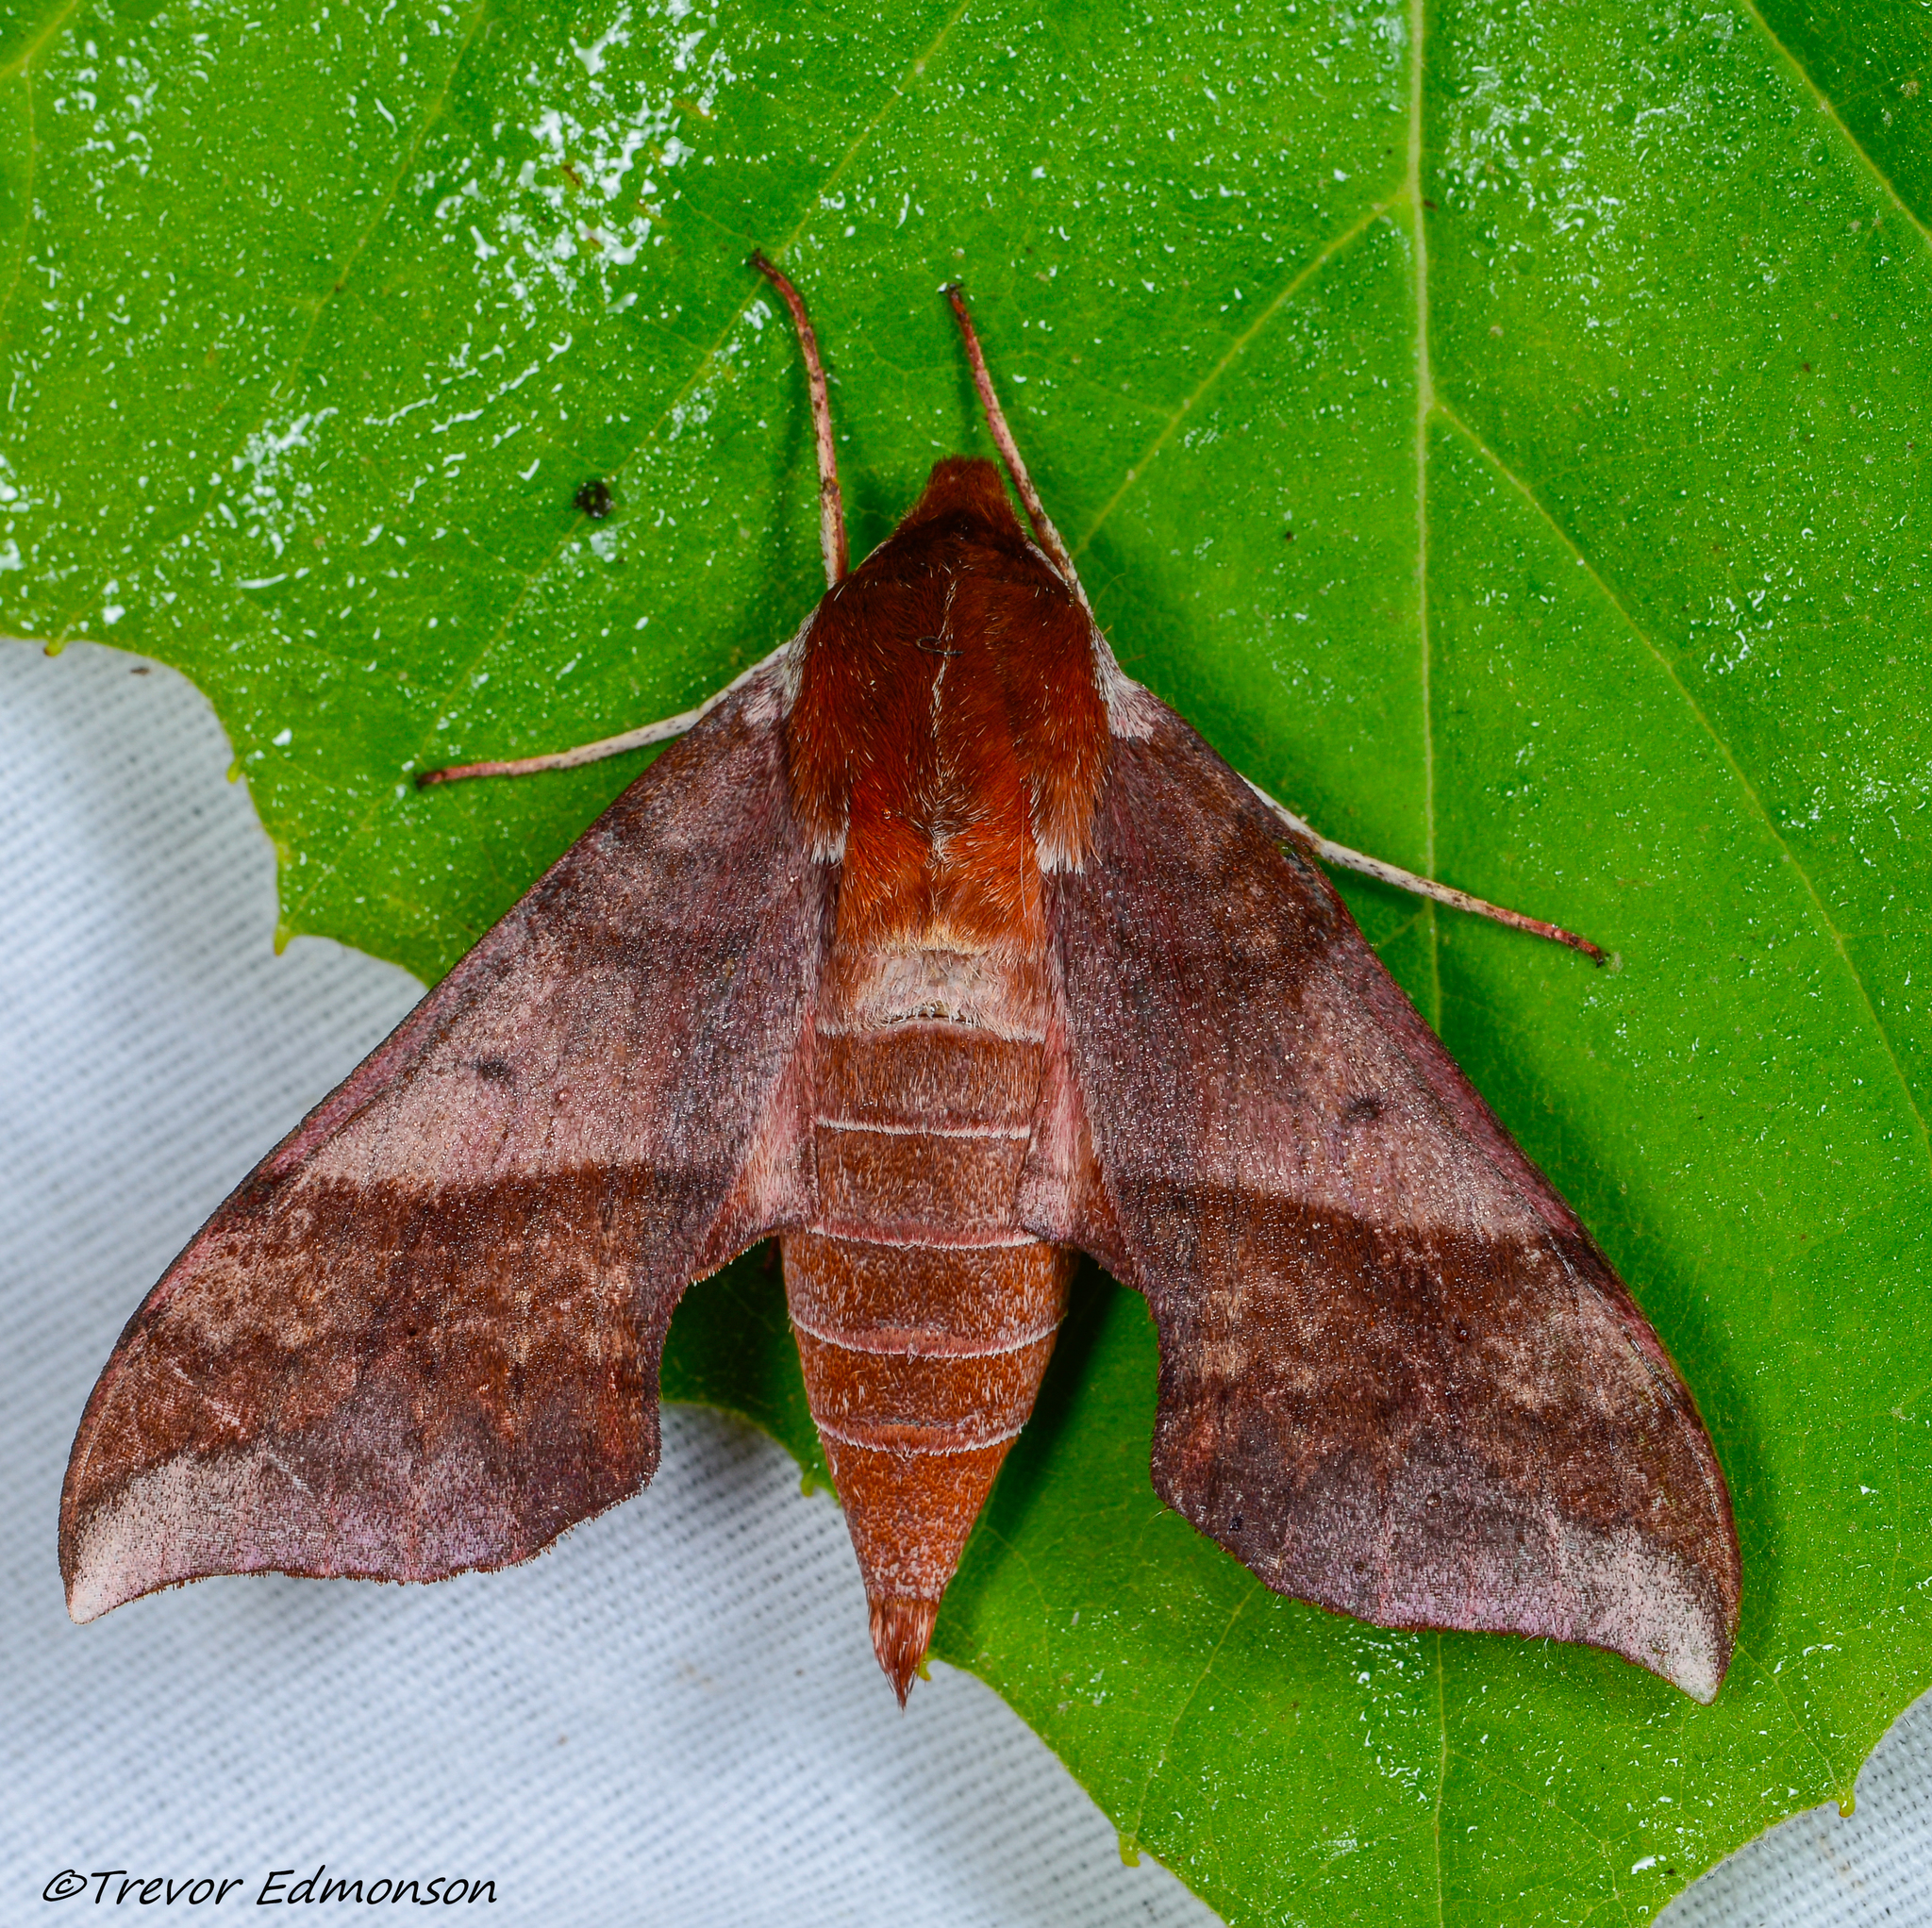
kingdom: Animalia
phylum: Arthropoda
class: Insecta
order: Lepidoptera
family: Sphingidae
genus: Darapsa
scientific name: Darapsa choerilus
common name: Azalea sphinx
